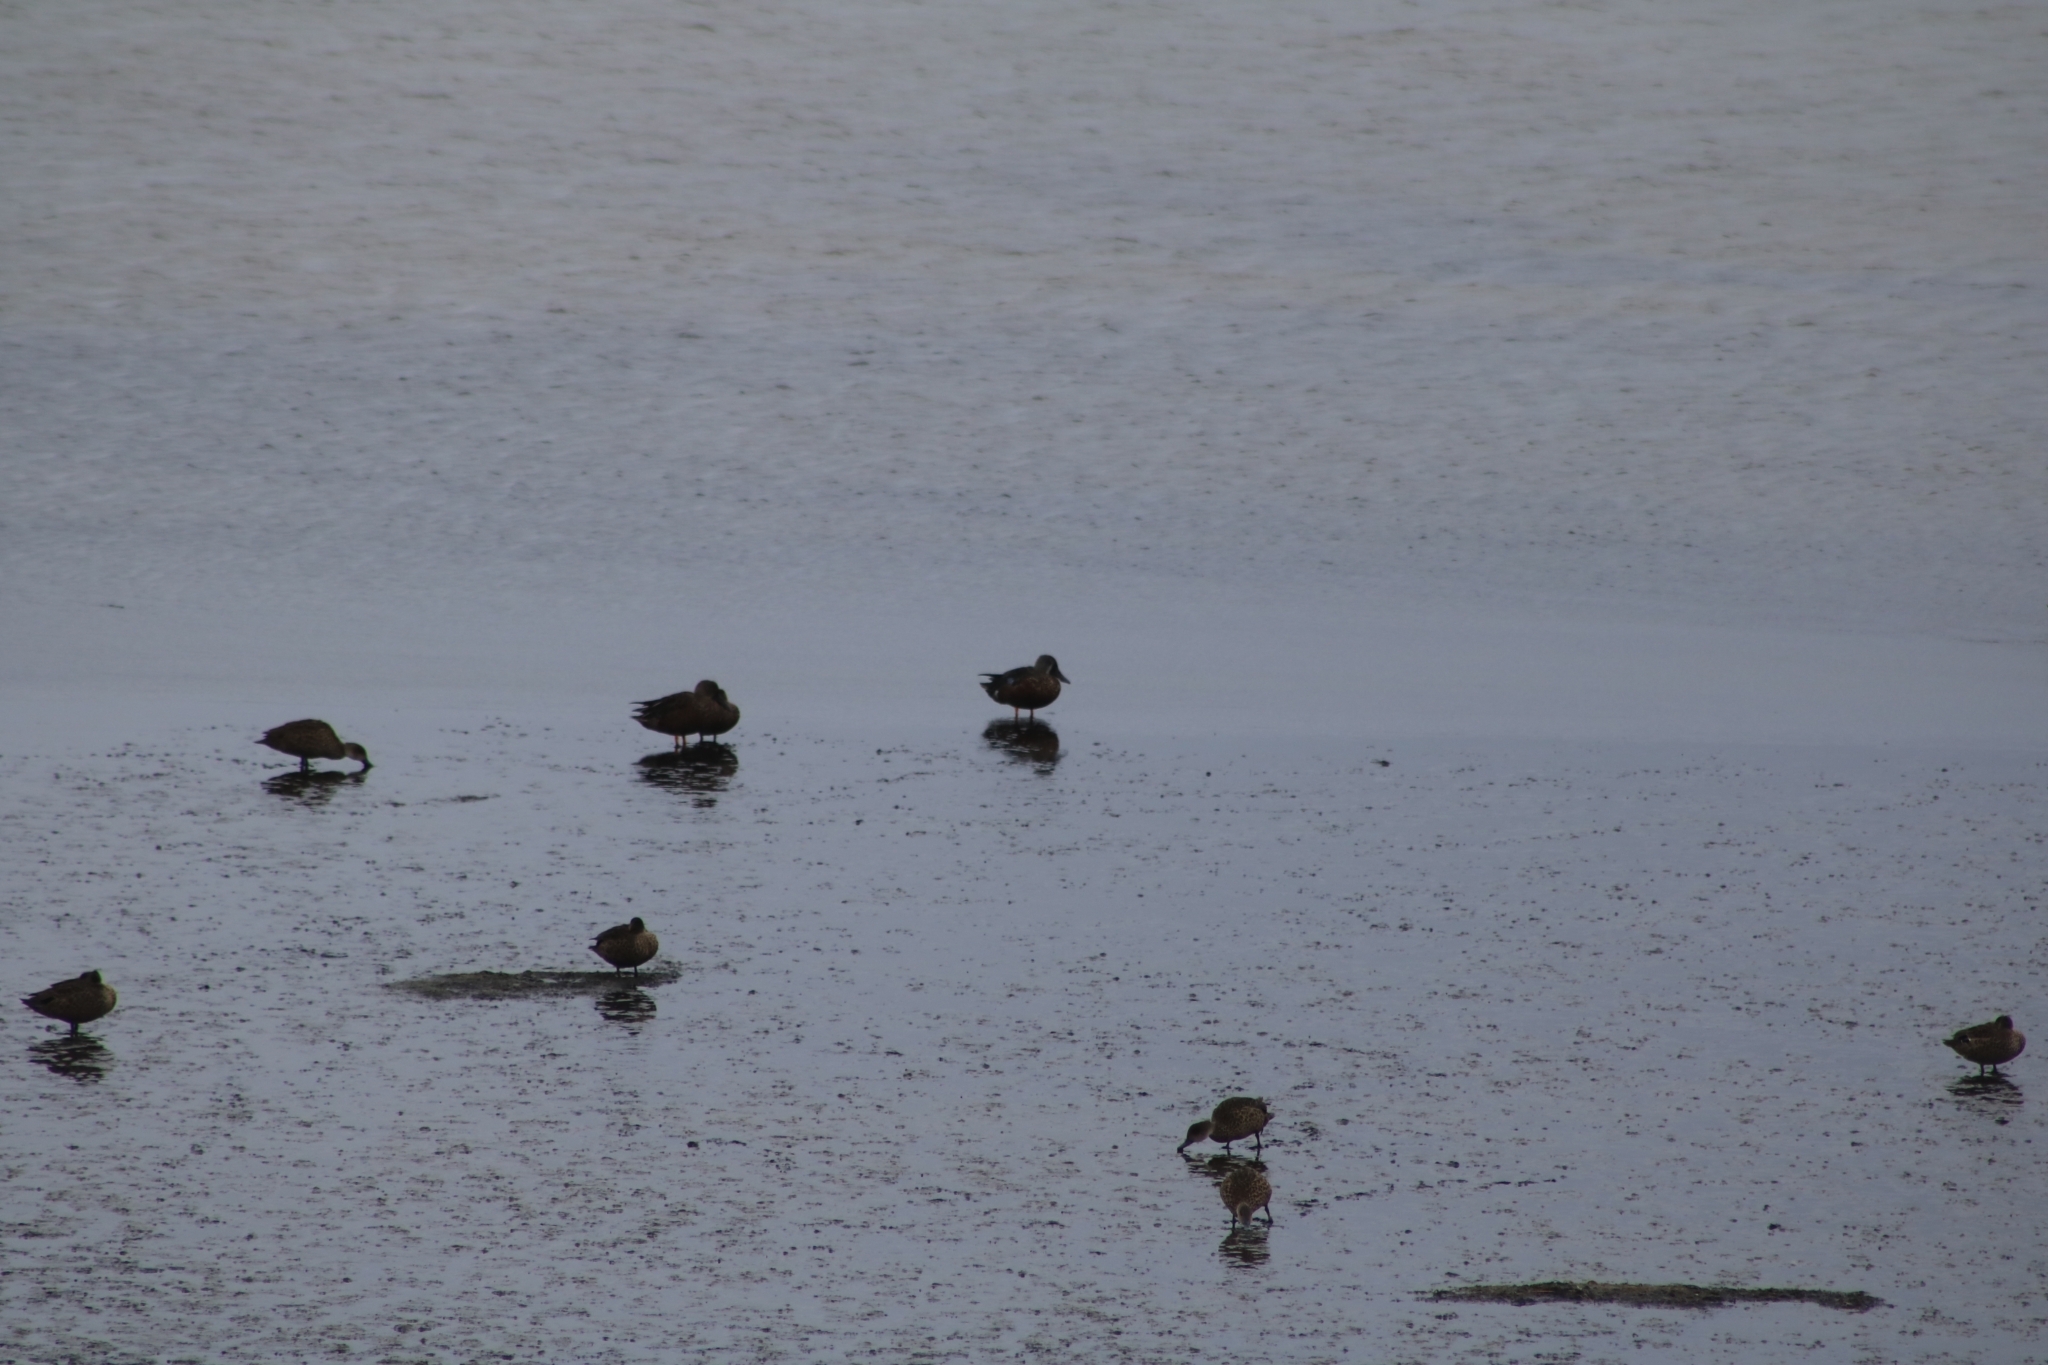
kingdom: Animalia
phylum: Chordata
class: Aves
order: Anseriformes
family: Anatidae
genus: Spatula
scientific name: Spatula rhynchotis
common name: Australian shoveler
